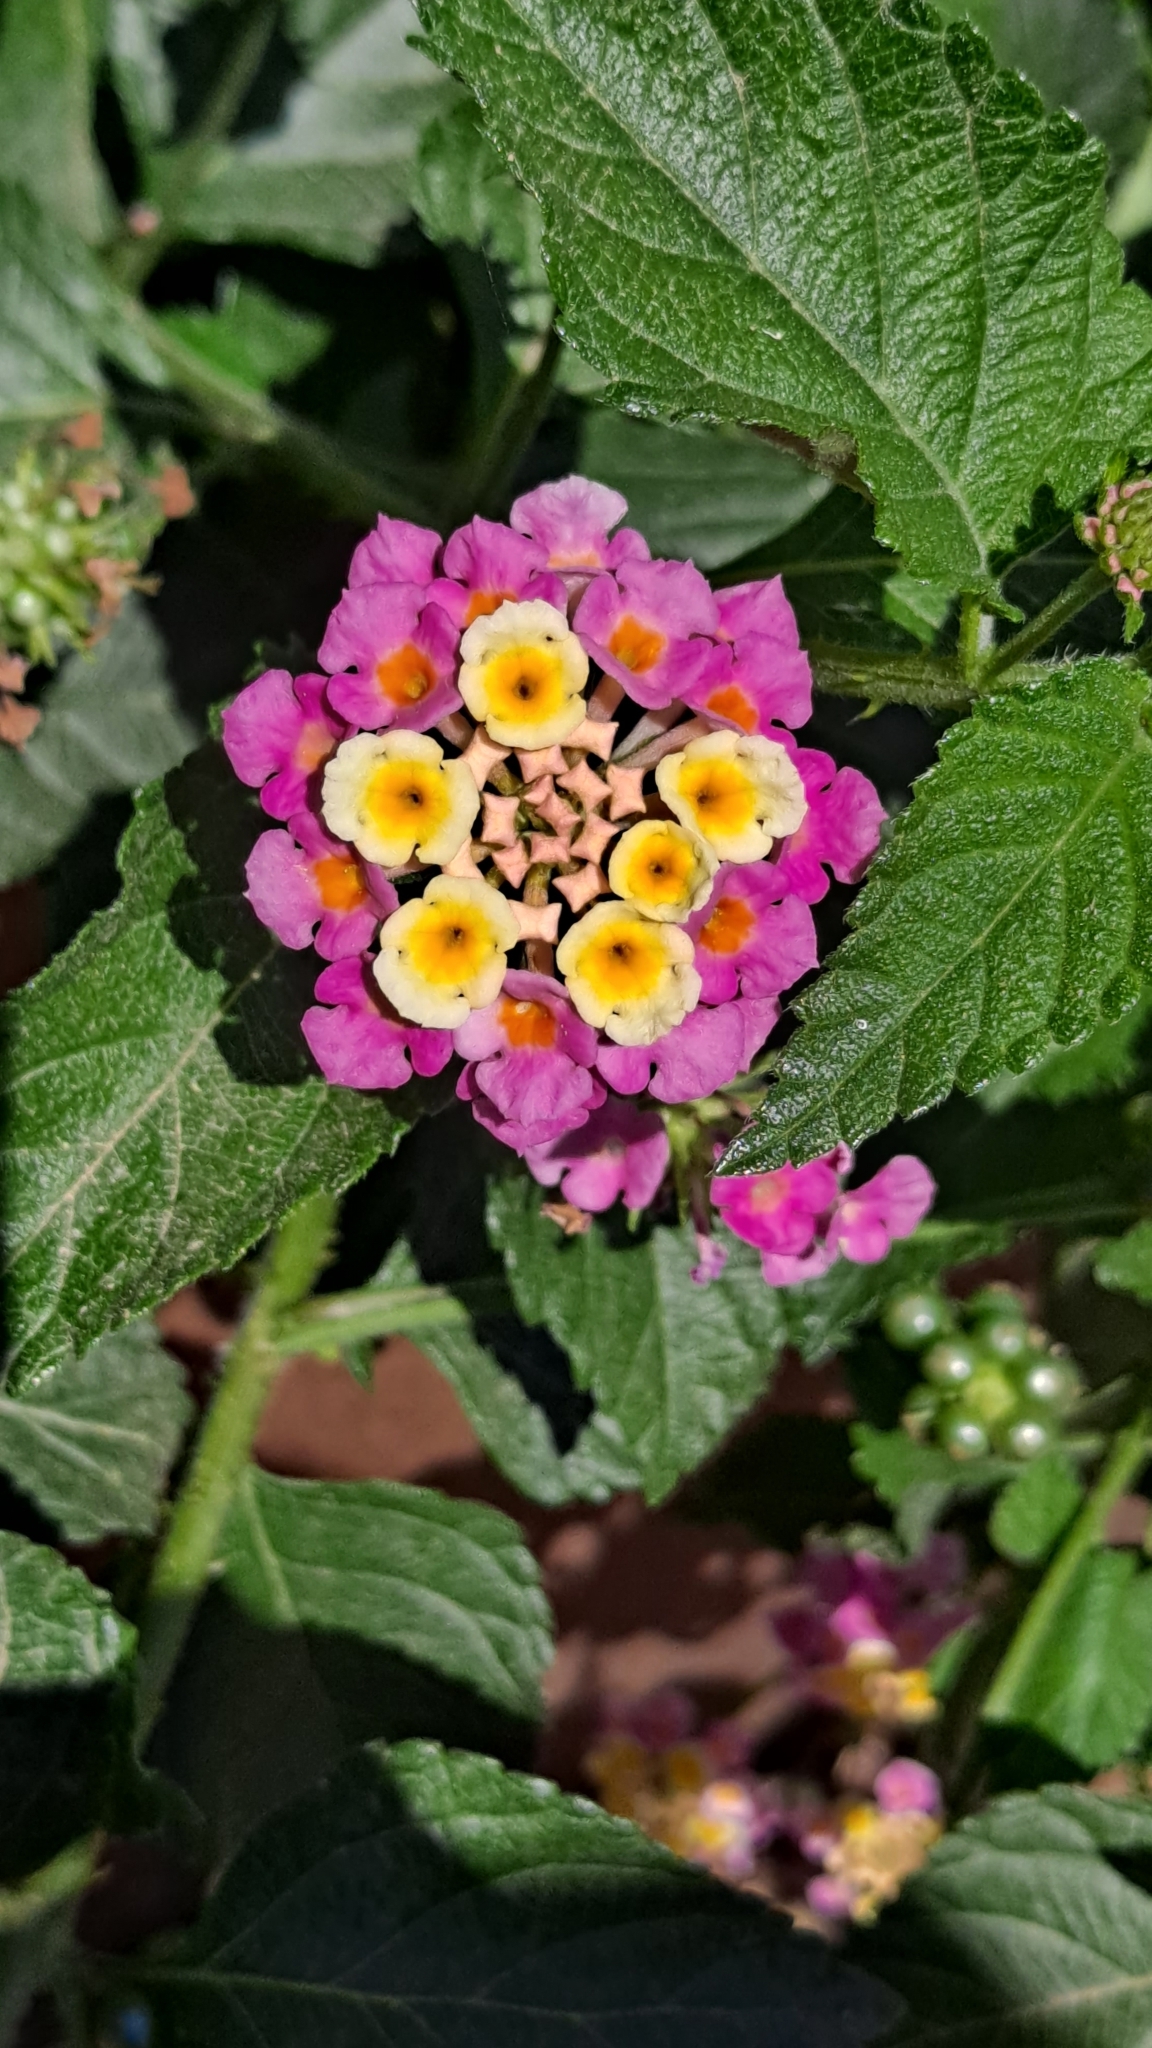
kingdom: Plantae
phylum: Tracheophyta
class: Magnoliopsida
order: Lamiales
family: Verbenaceae
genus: Lantana
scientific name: Lantana camara
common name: Lantana
